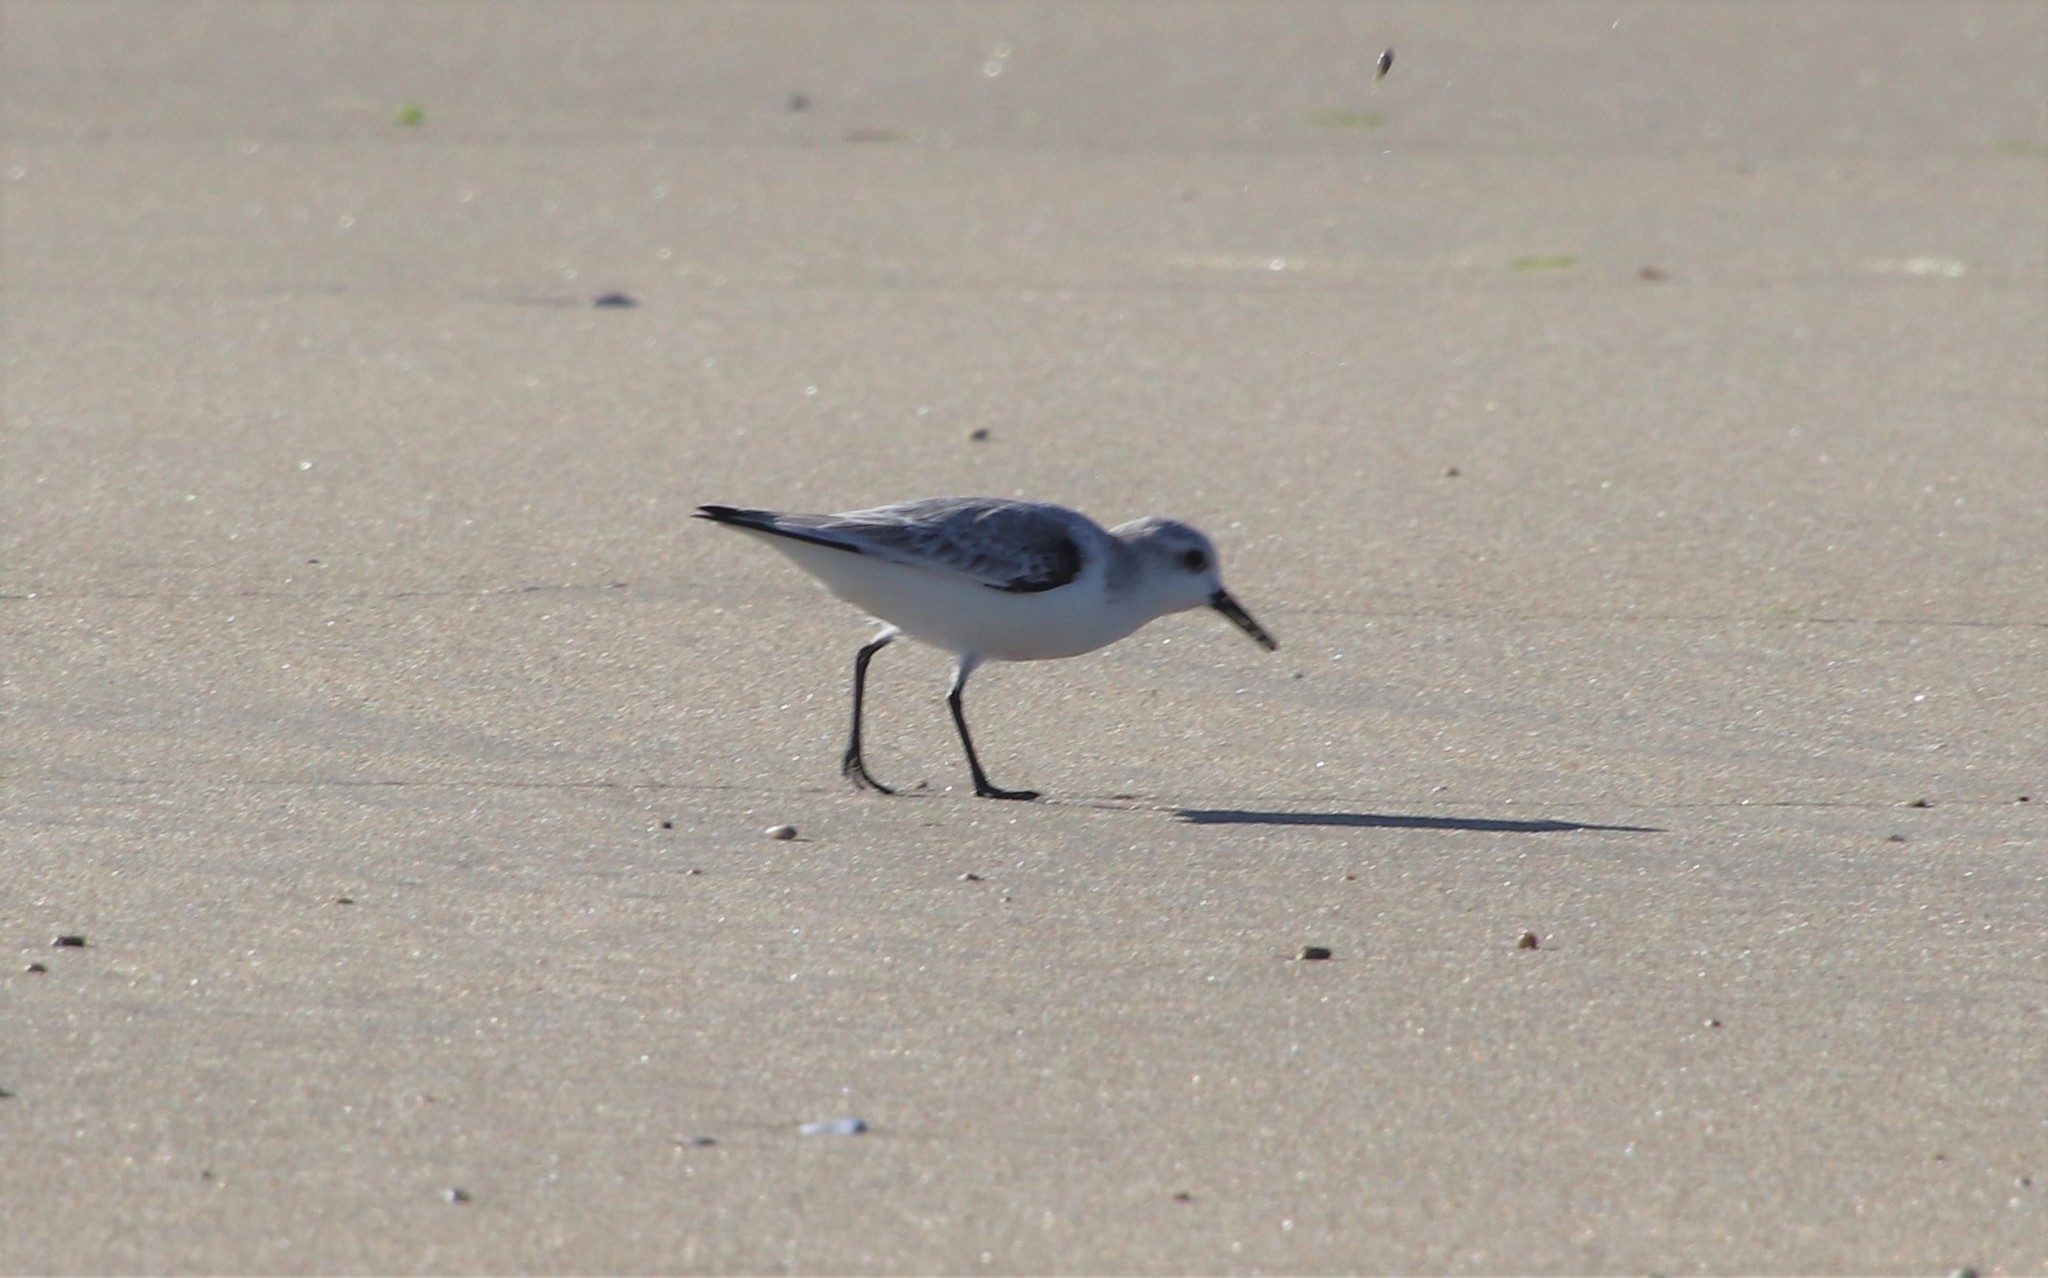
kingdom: Animalia
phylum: Chordata
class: Aves
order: Charadriiformes
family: Scolopacidae
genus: Calidris
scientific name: Calidris alba
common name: Sanderling
